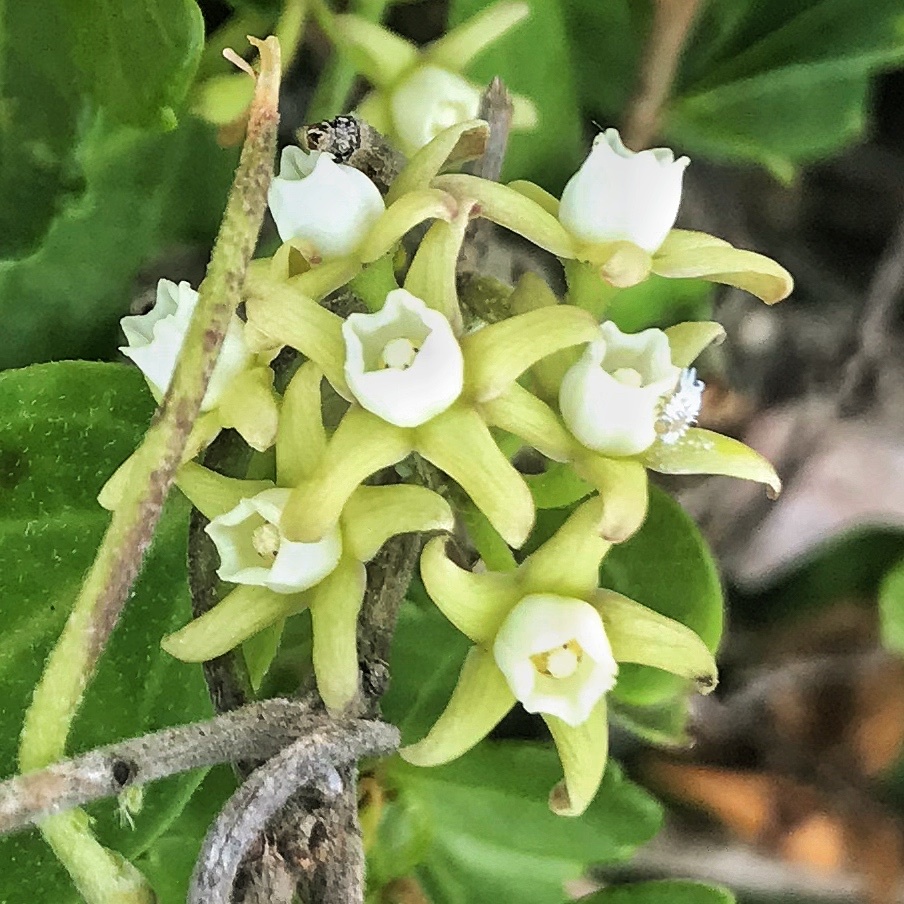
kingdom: Plantae
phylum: Tracheophyta
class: Magnoliopsida
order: Gentianales
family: Apocynaceae
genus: Cynanchum
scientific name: Cynanchum natalitium
